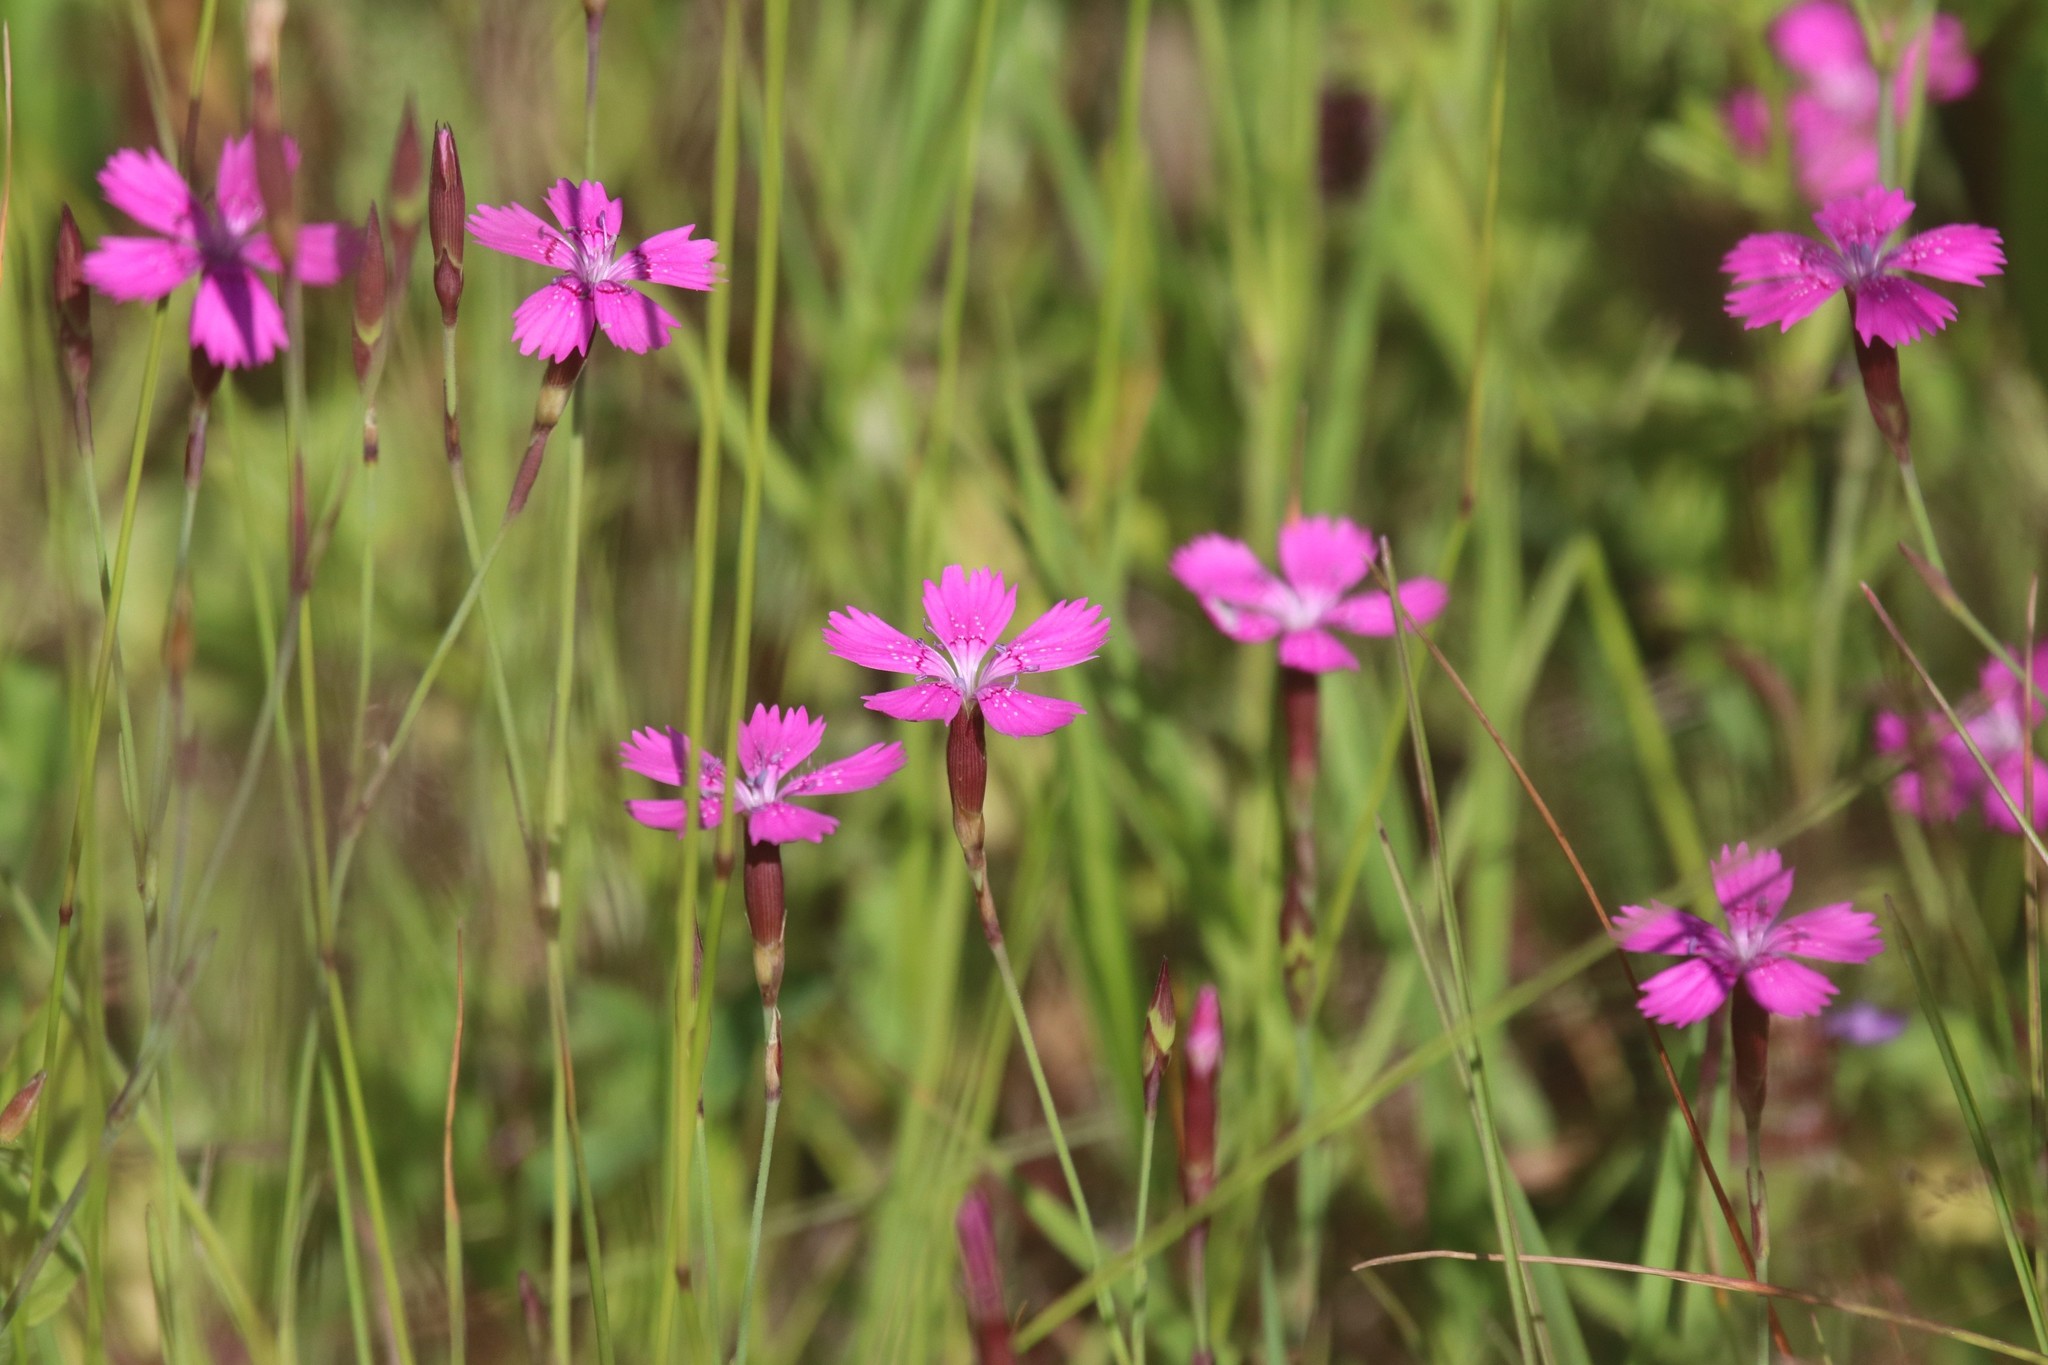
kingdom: Plantae
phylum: Tracheophyta
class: Magnoliopsida
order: Caryophyllales
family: Caryophyllaceae
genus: Dianthus
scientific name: Dianthus deltoides
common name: Maiden pink
